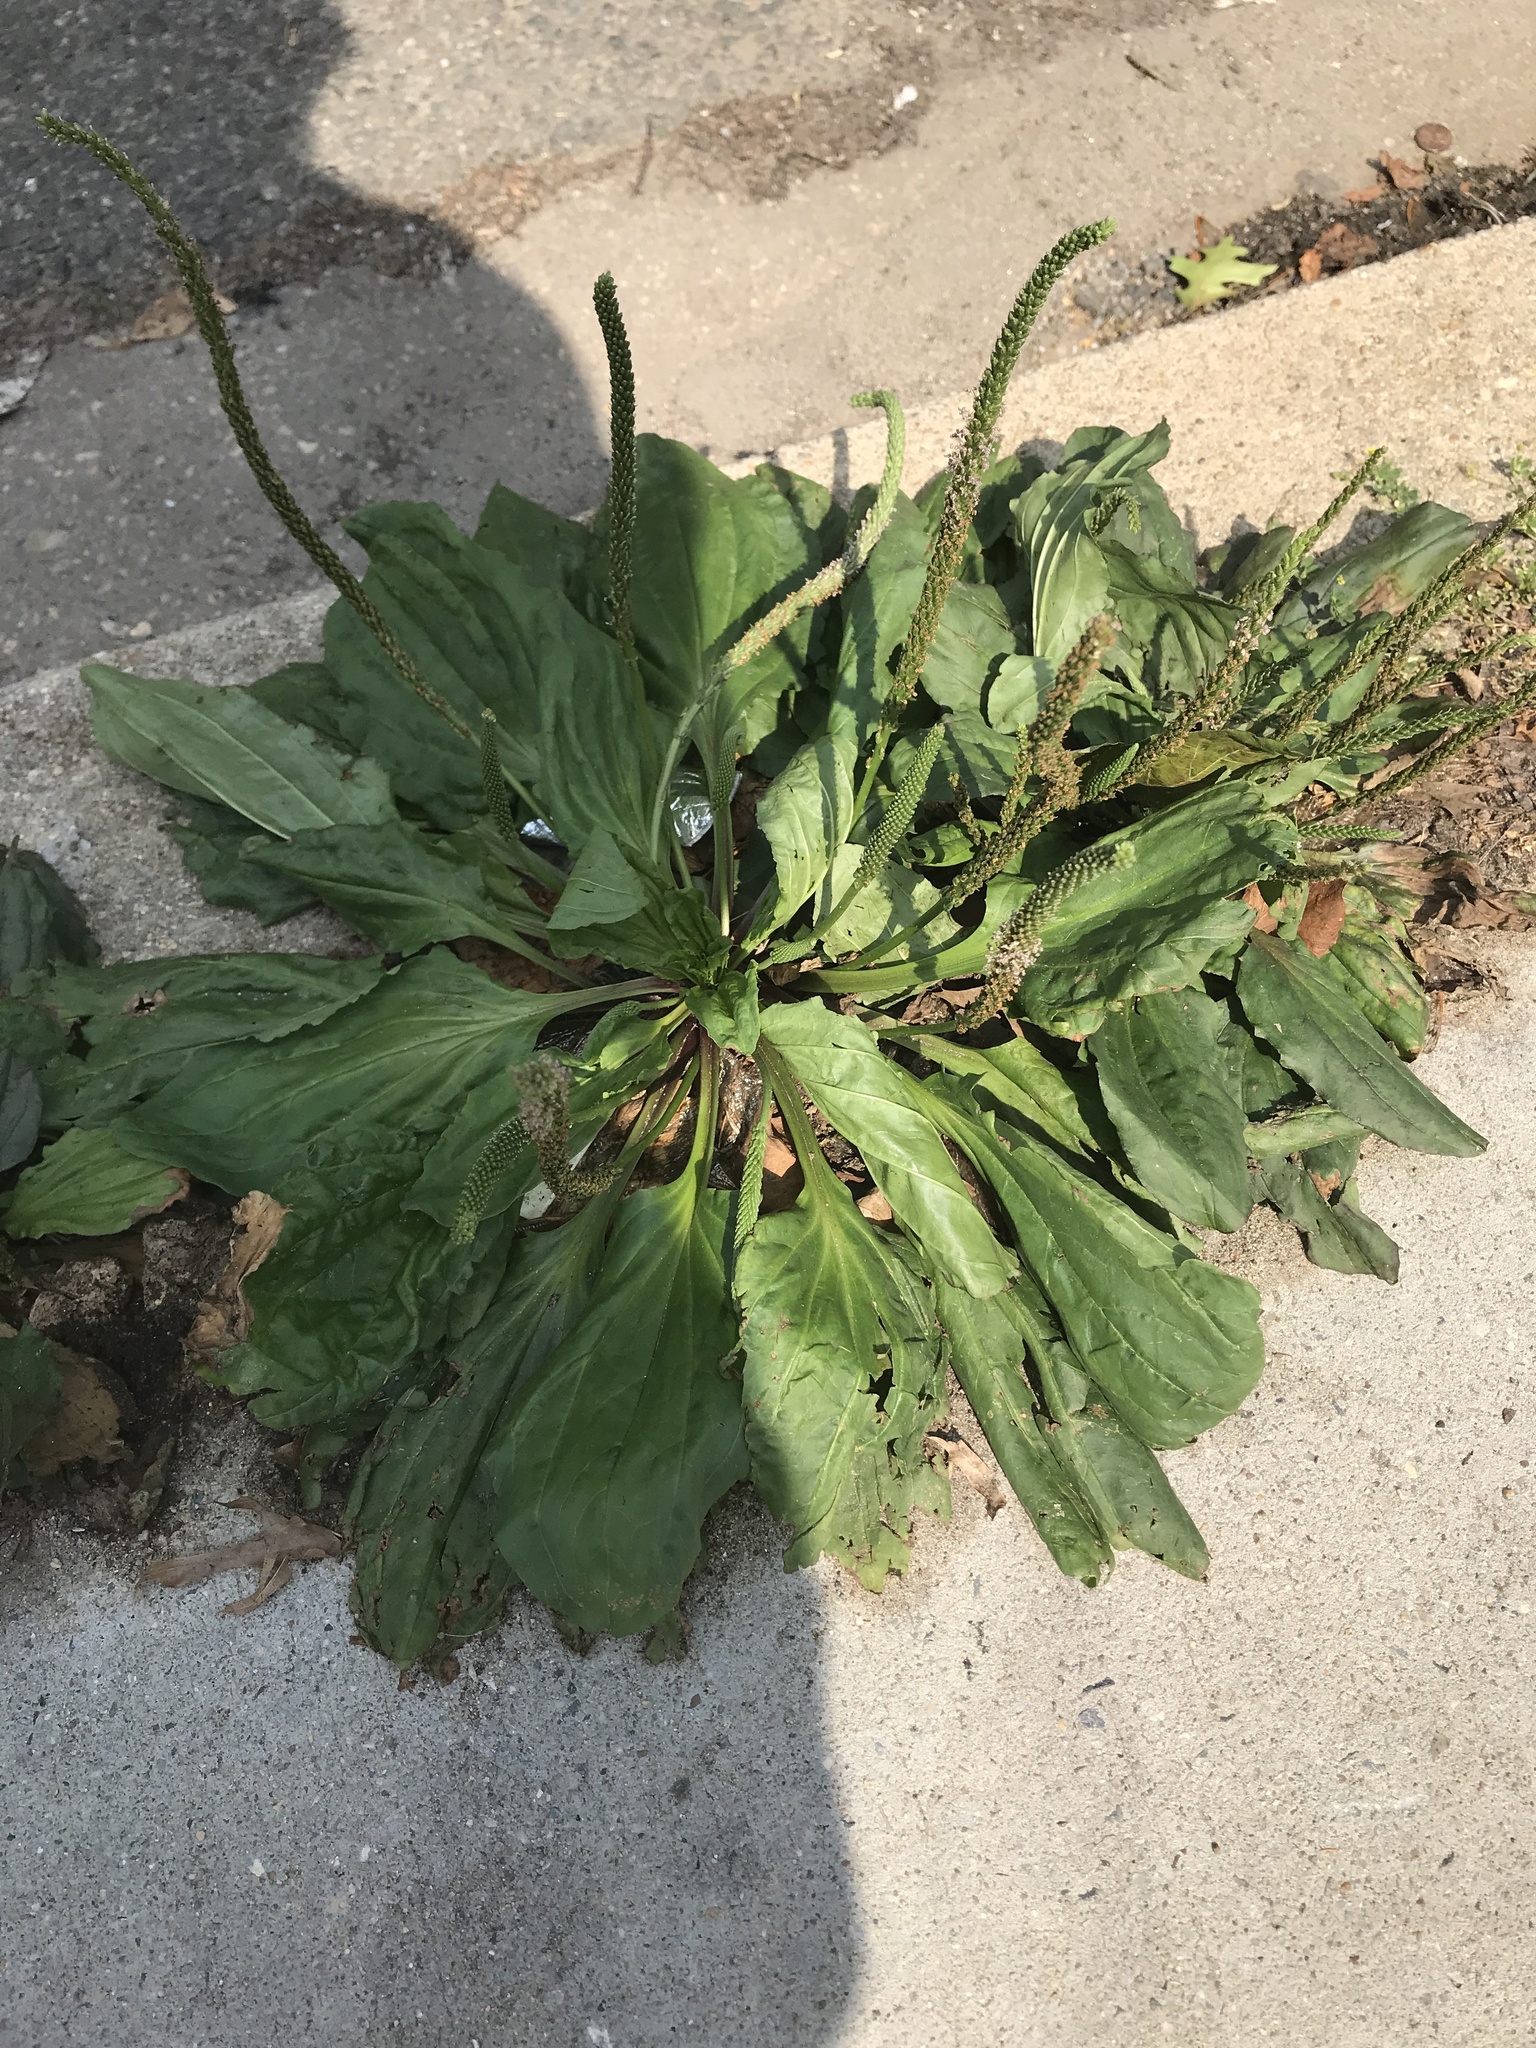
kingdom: Plantae
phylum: Tracheophyta
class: Magnoliopsida
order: Lamiales
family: Plantaginaceae
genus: Plantago
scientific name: Plantago rugelii
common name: American plantain
